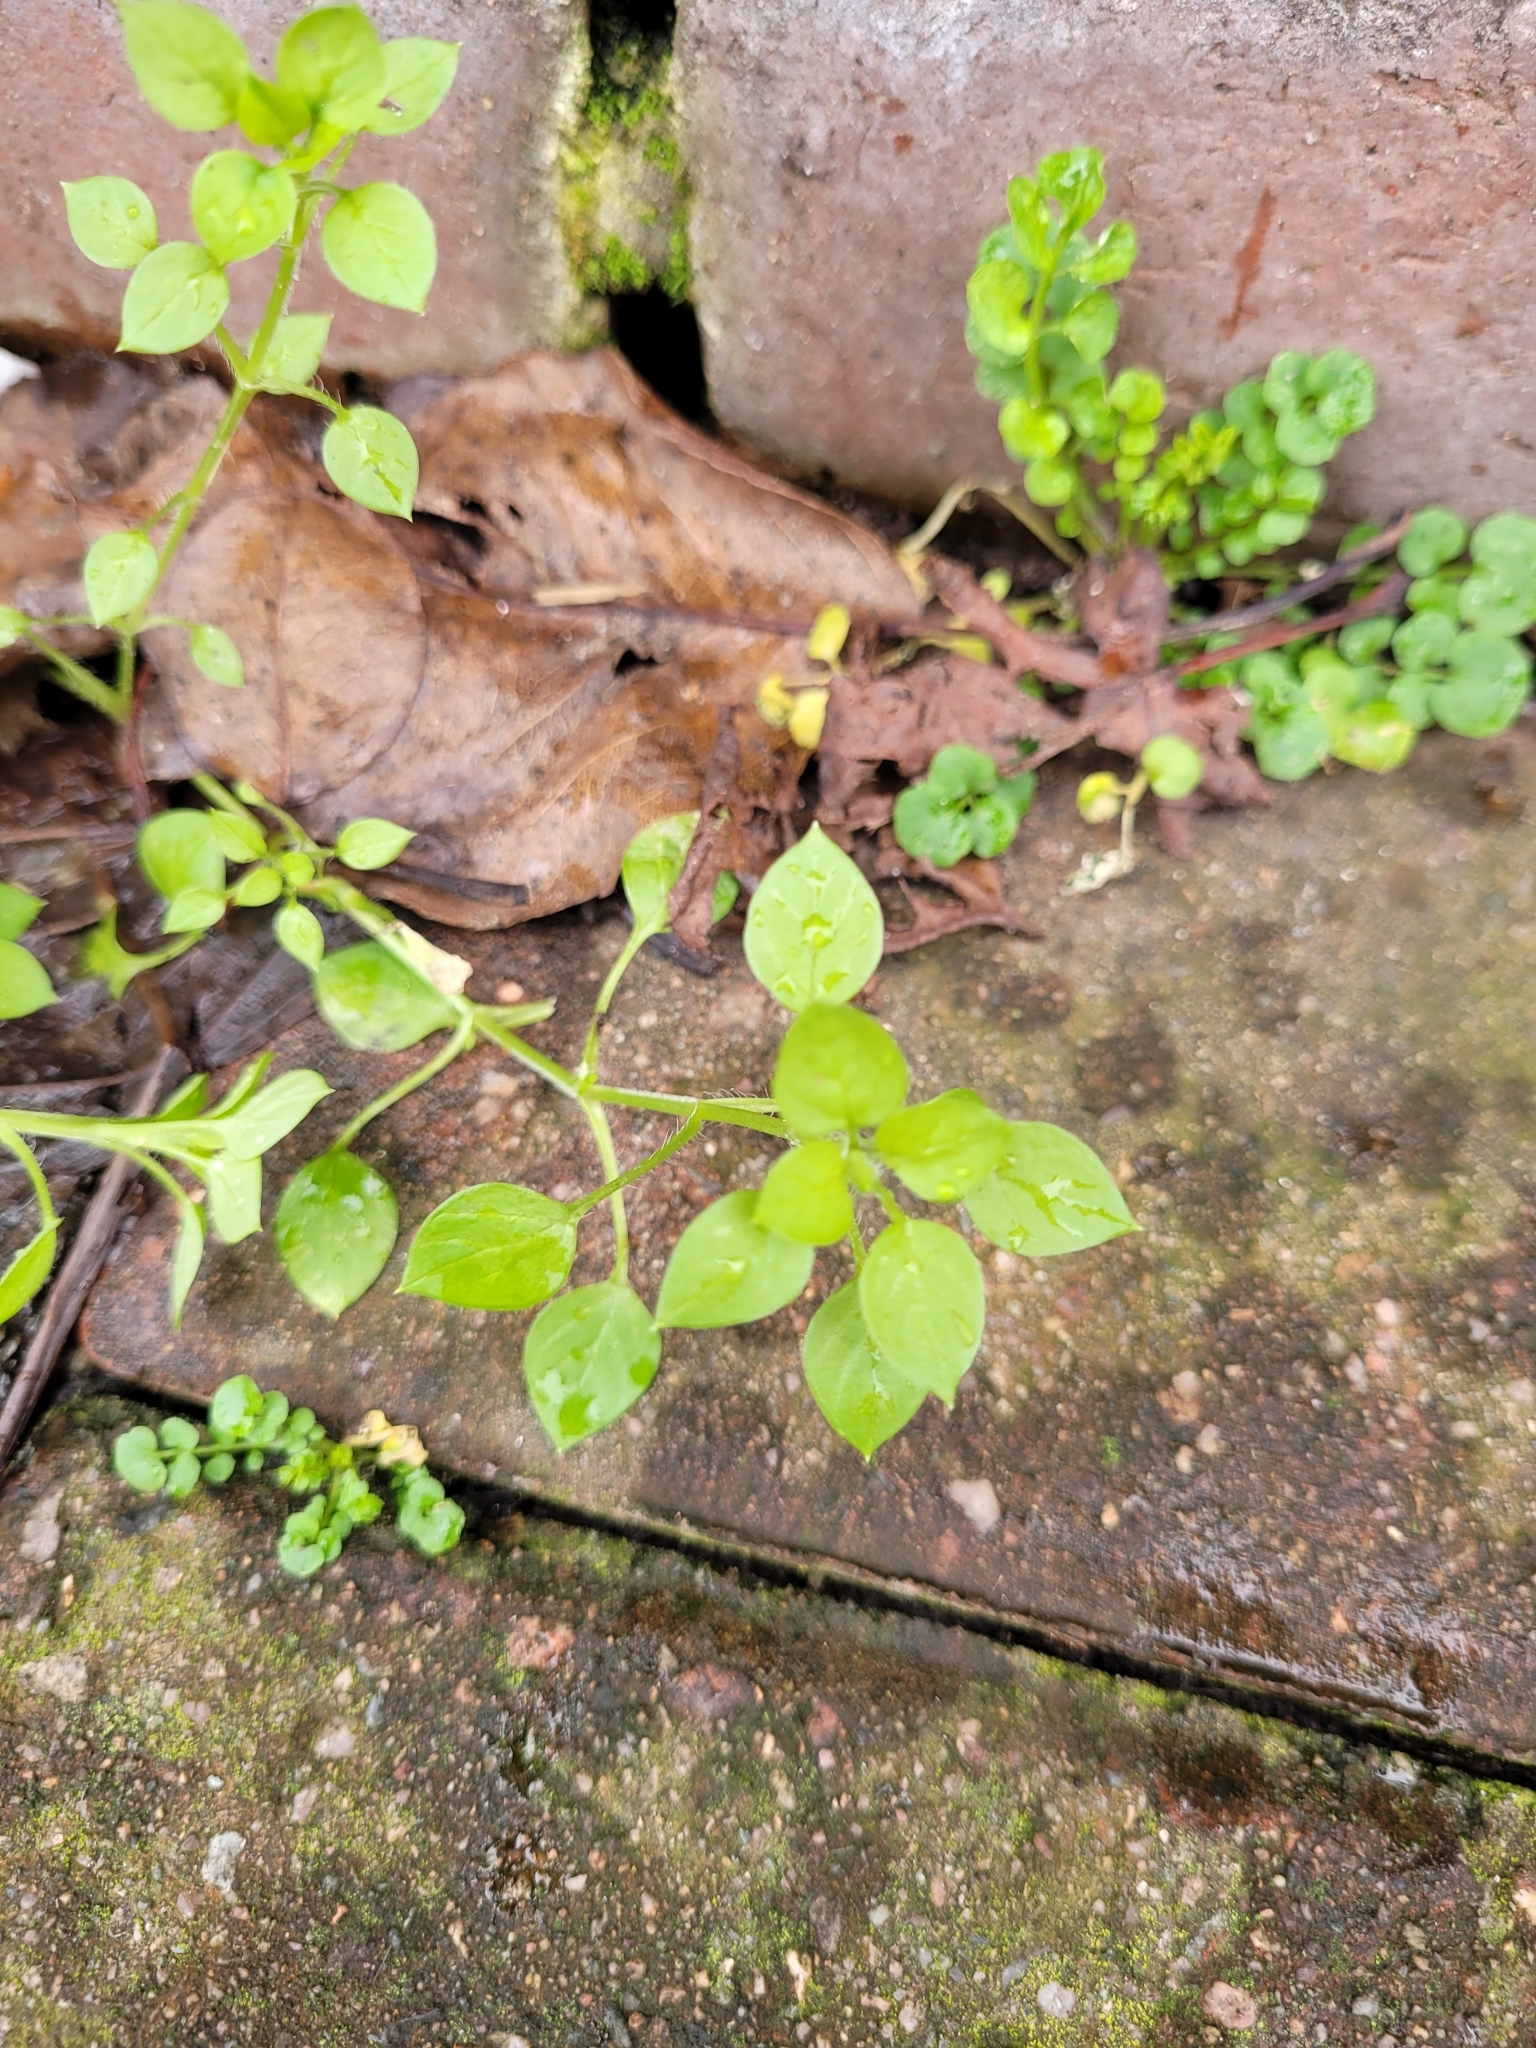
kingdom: Plantae
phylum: Tracheophyta
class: Magnoliopsida
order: Caryophyllales
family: Caryophyllaceae
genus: Stellaria
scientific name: Stellaria media
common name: Common chickweed
